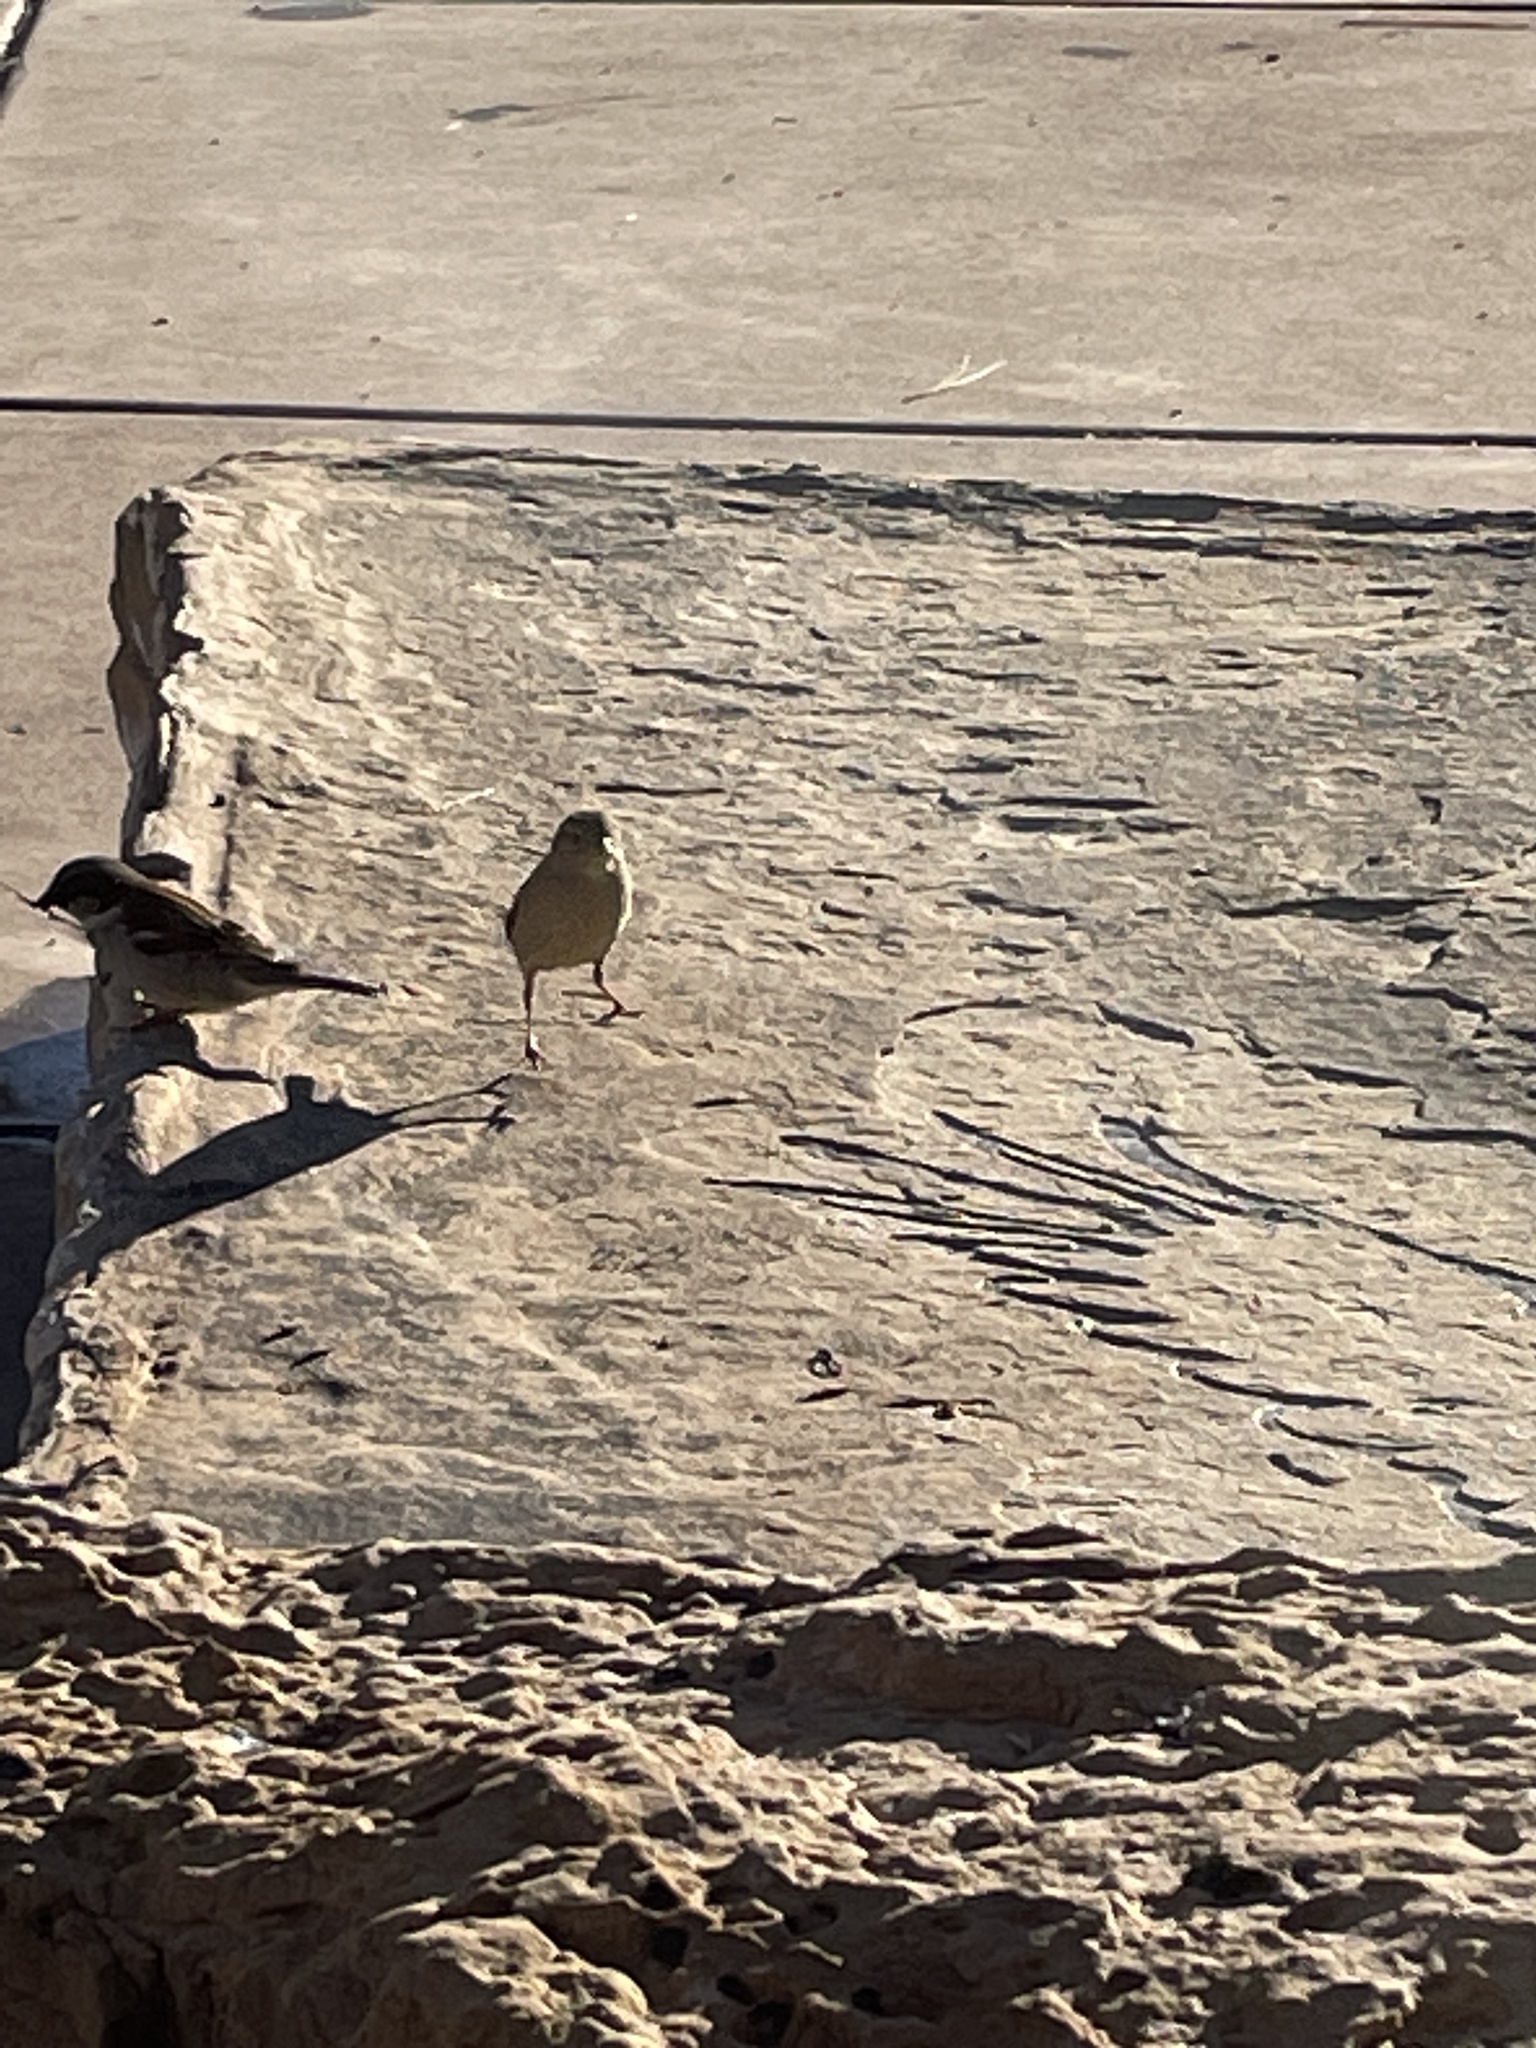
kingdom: Animalia
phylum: Chordata
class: Aves
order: Passeriformes
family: Passeridae
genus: Passer
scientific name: Passer domesticus
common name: House sparrow
